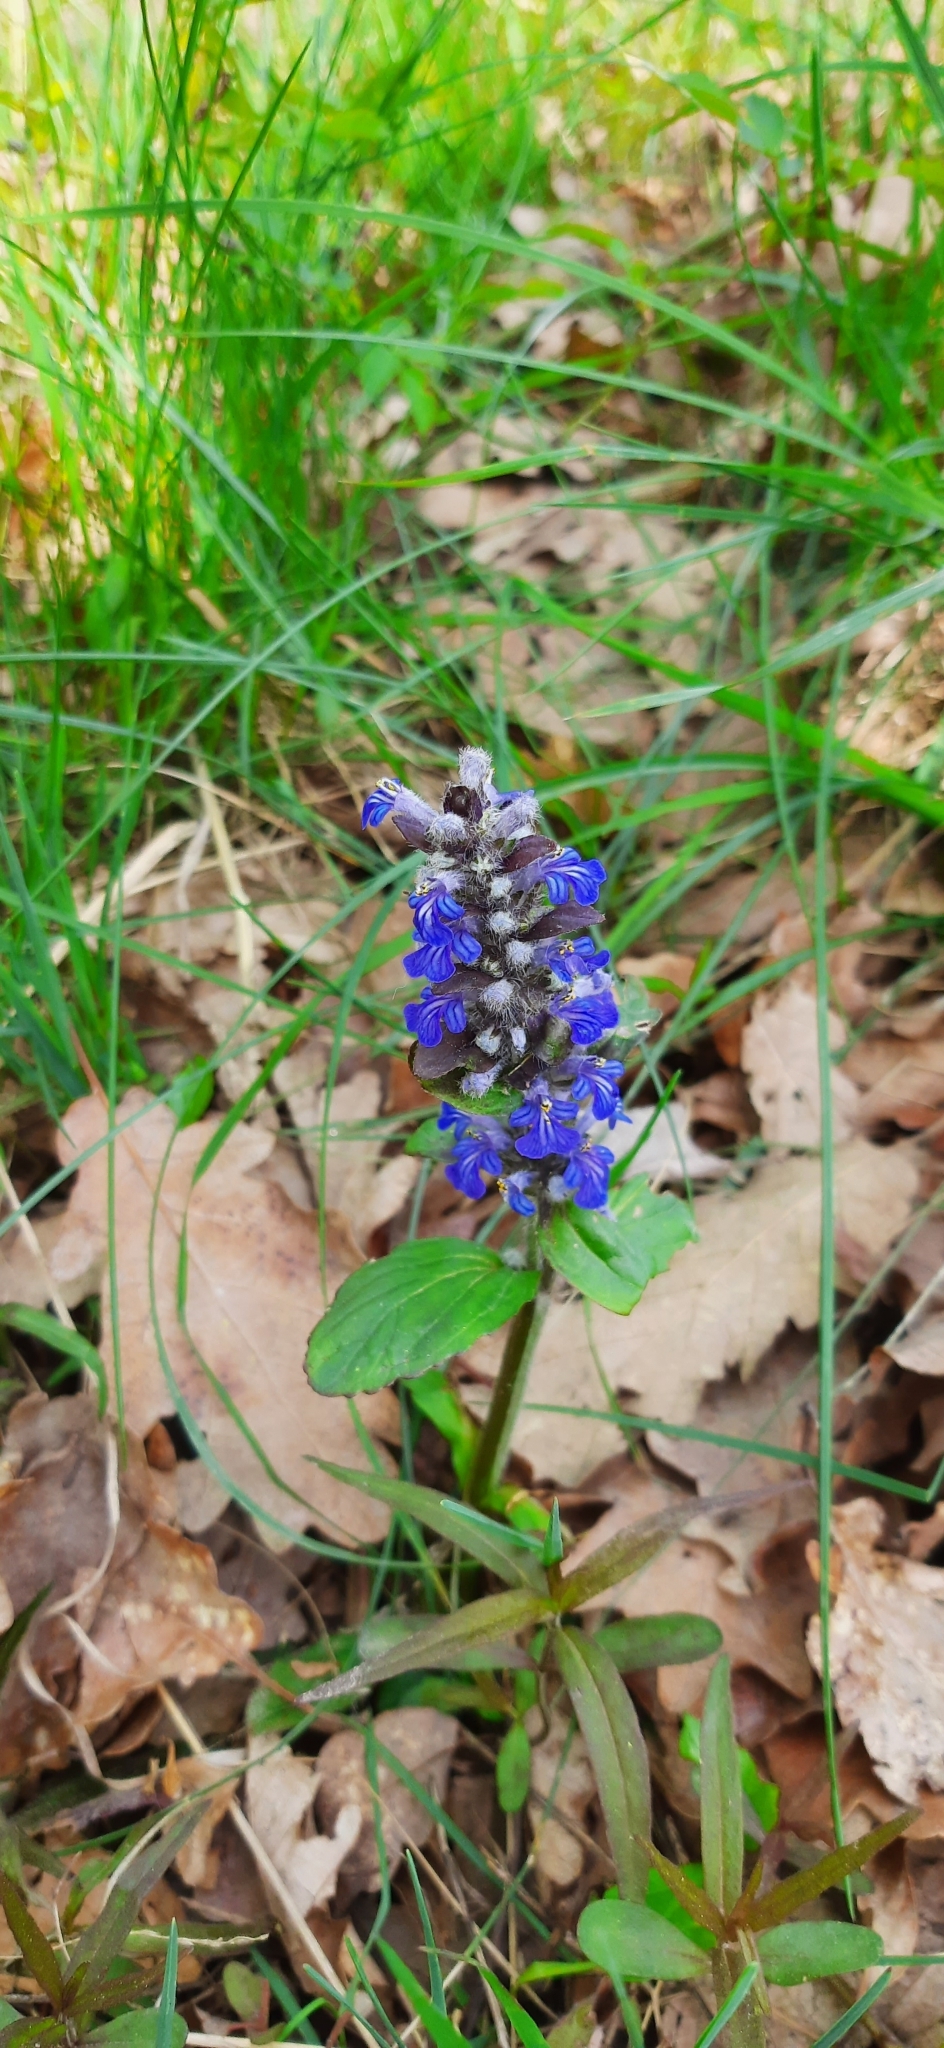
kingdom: Plantae
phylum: Tracheophyta
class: Magnoliopsida
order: Lamiales
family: Lamiaceae
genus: Ajuga
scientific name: Ajuga reptans
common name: Bugle
